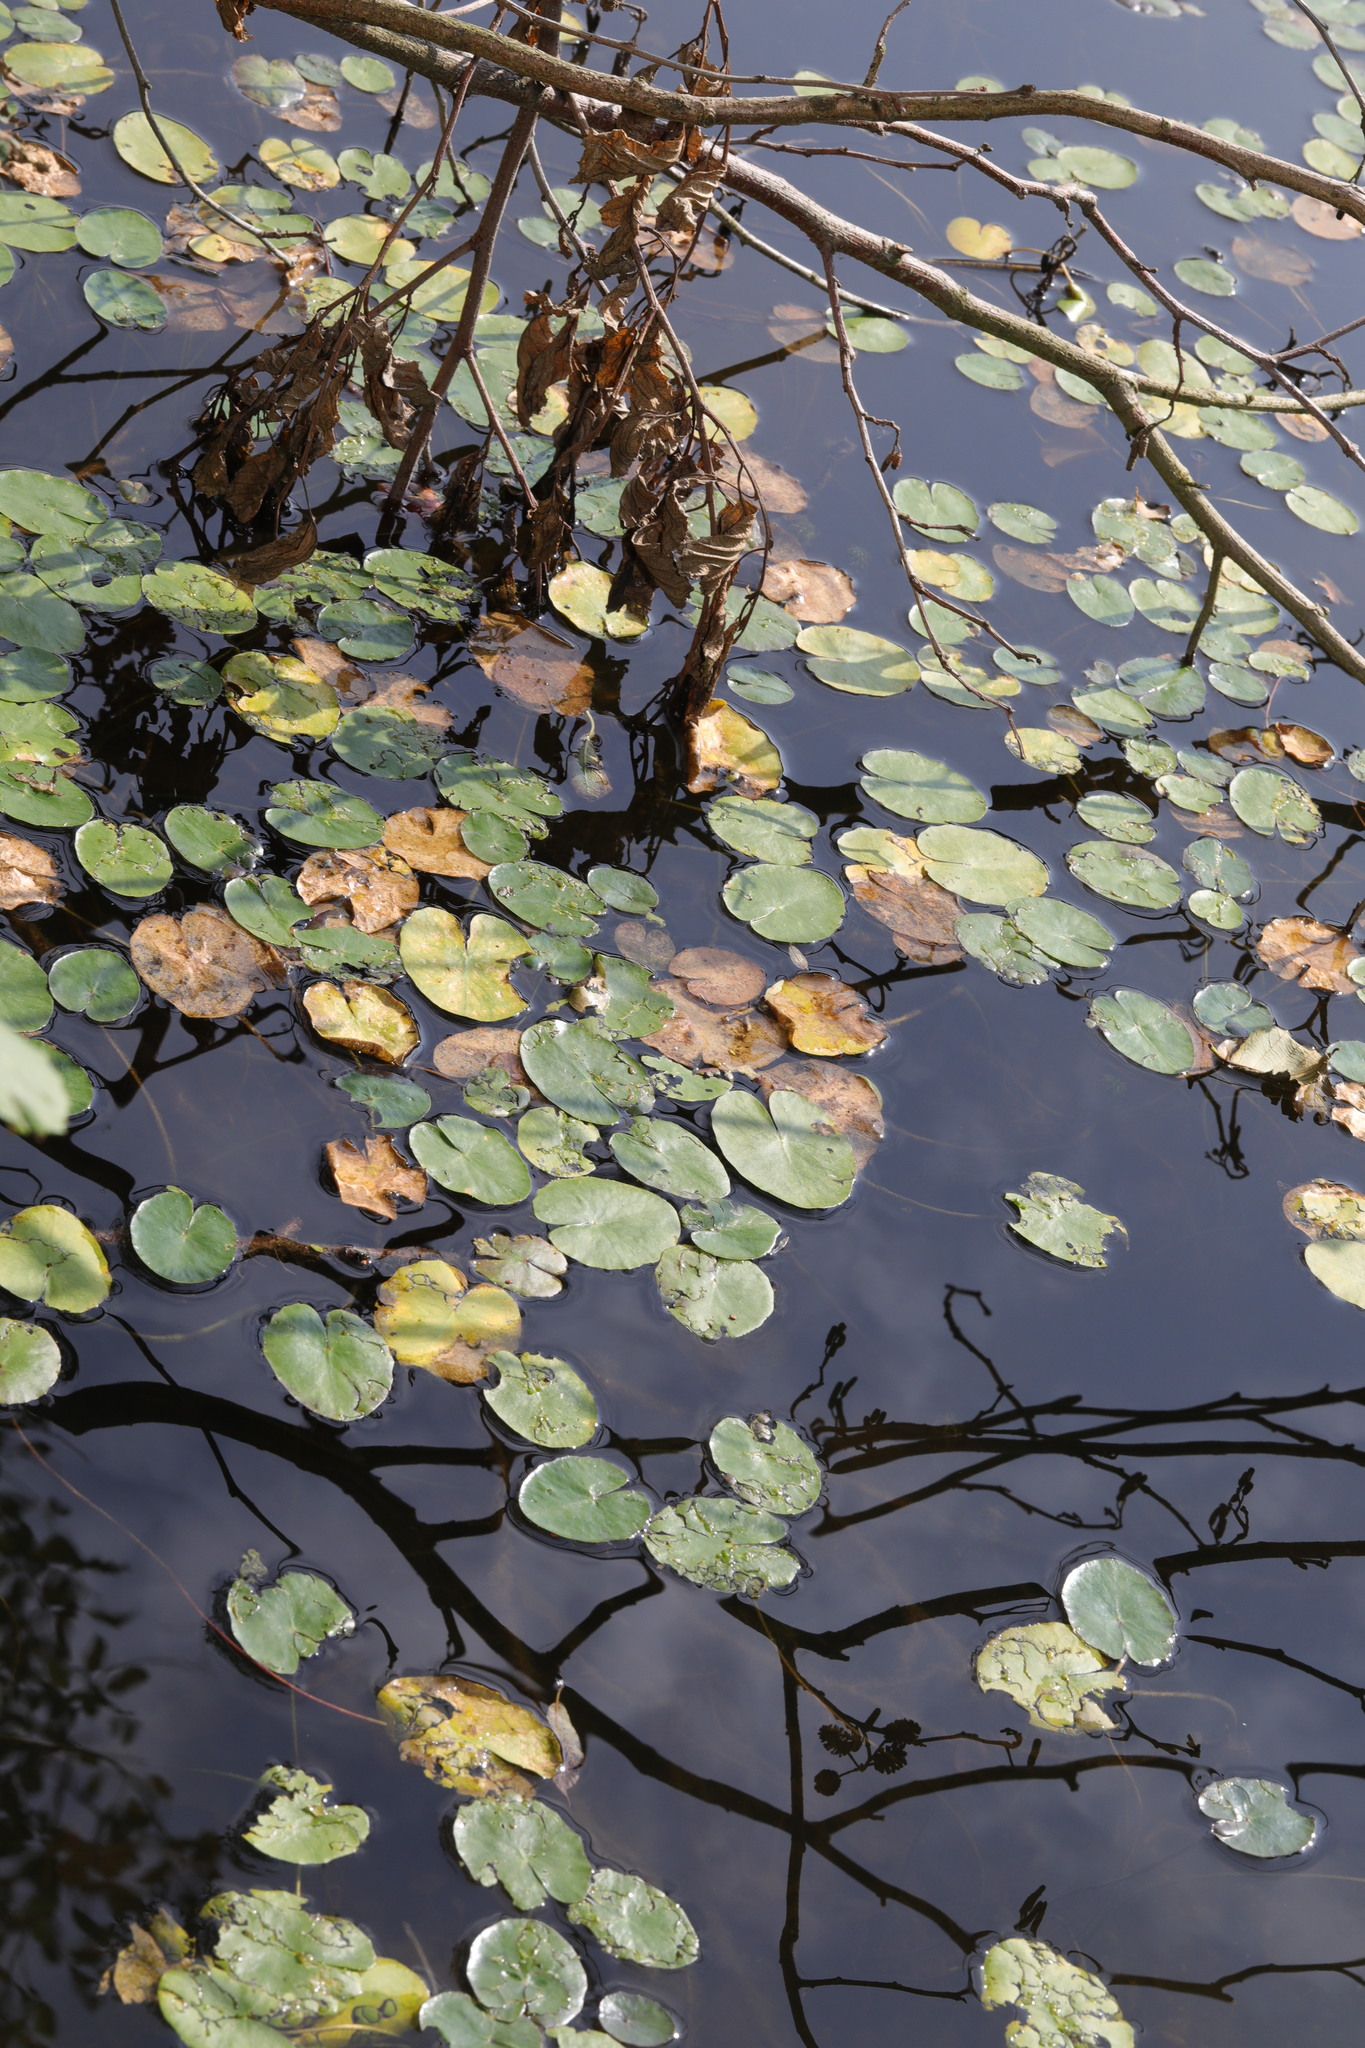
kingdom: Plantae
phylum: Tracheophyta
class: Magnoliopsida
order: Asterales
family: Menyanthaceae
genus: Nymphoides
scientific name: Nymphoides peltata
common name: Fringed water-lily
